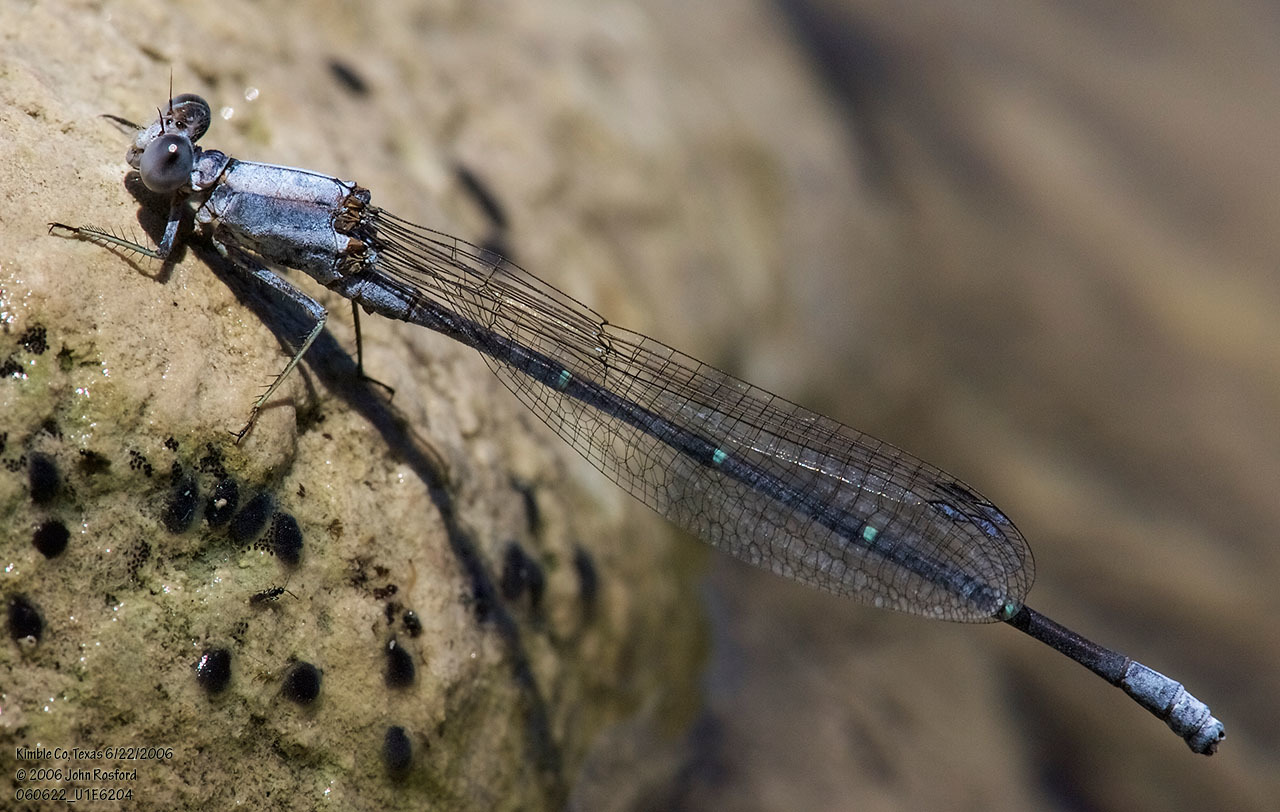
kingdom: Animalia
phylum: Arthropoda
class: Insecta
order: Odonata
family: Coenagrionidae
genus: Argia
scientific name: Argia moesta
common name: Powdered dancer
